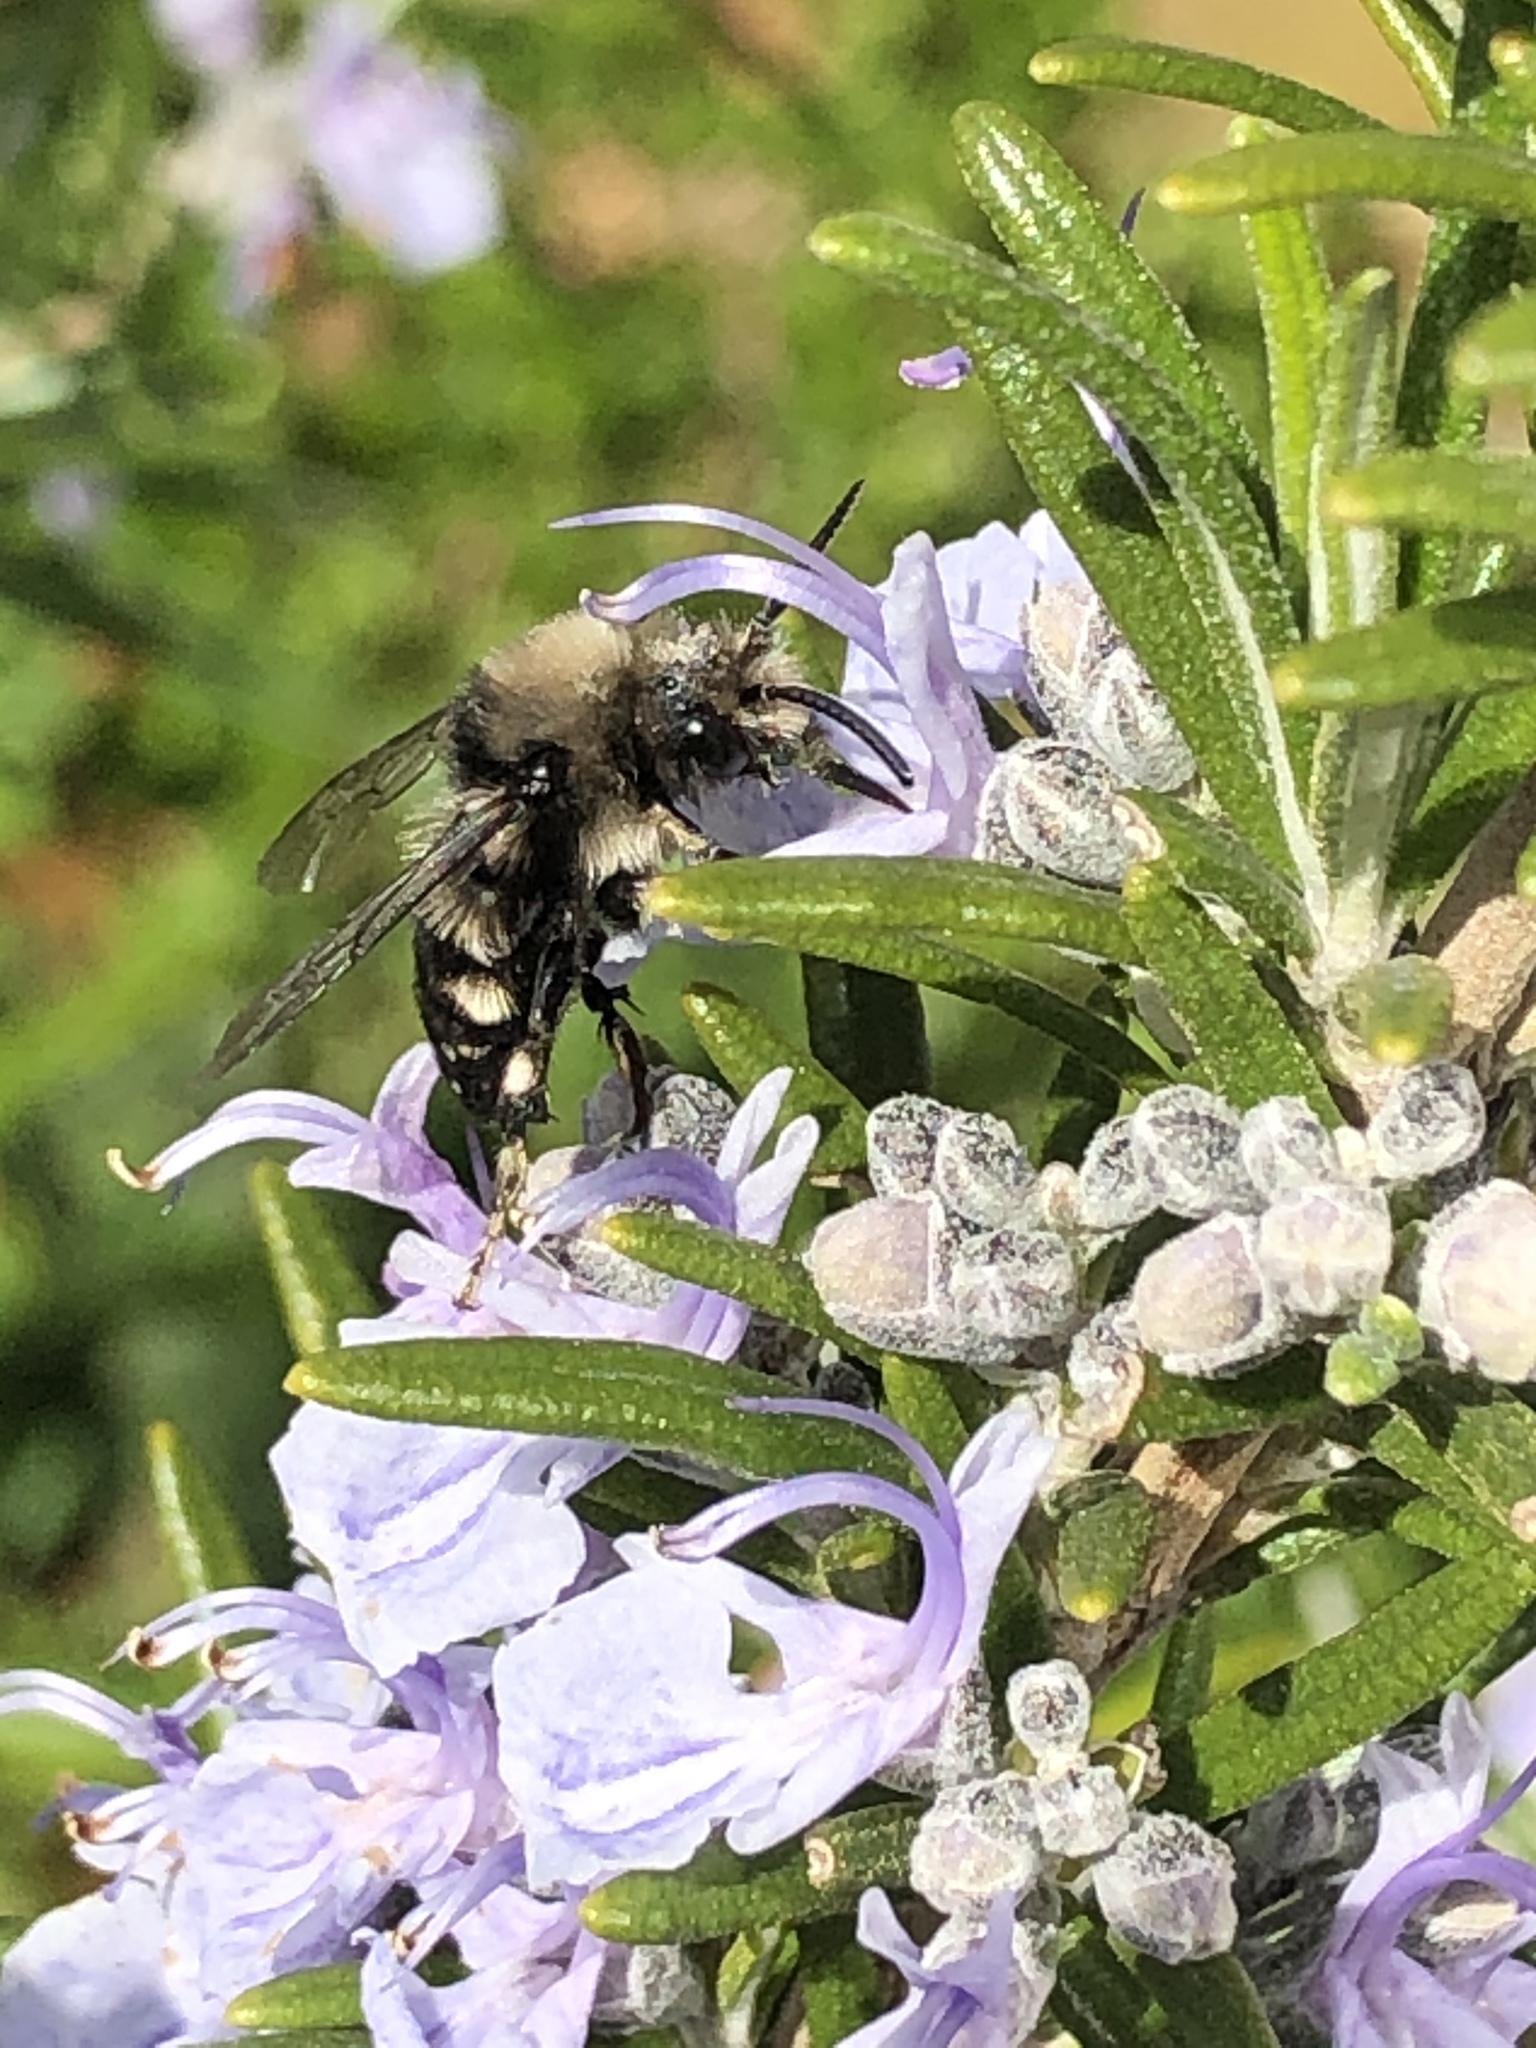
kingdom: Animalia
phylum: Arthropoda
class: Insecta
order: Hymenoptera
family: Apidae
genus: Melecta
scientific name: Melecta albifrons
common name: Common mourning bee
